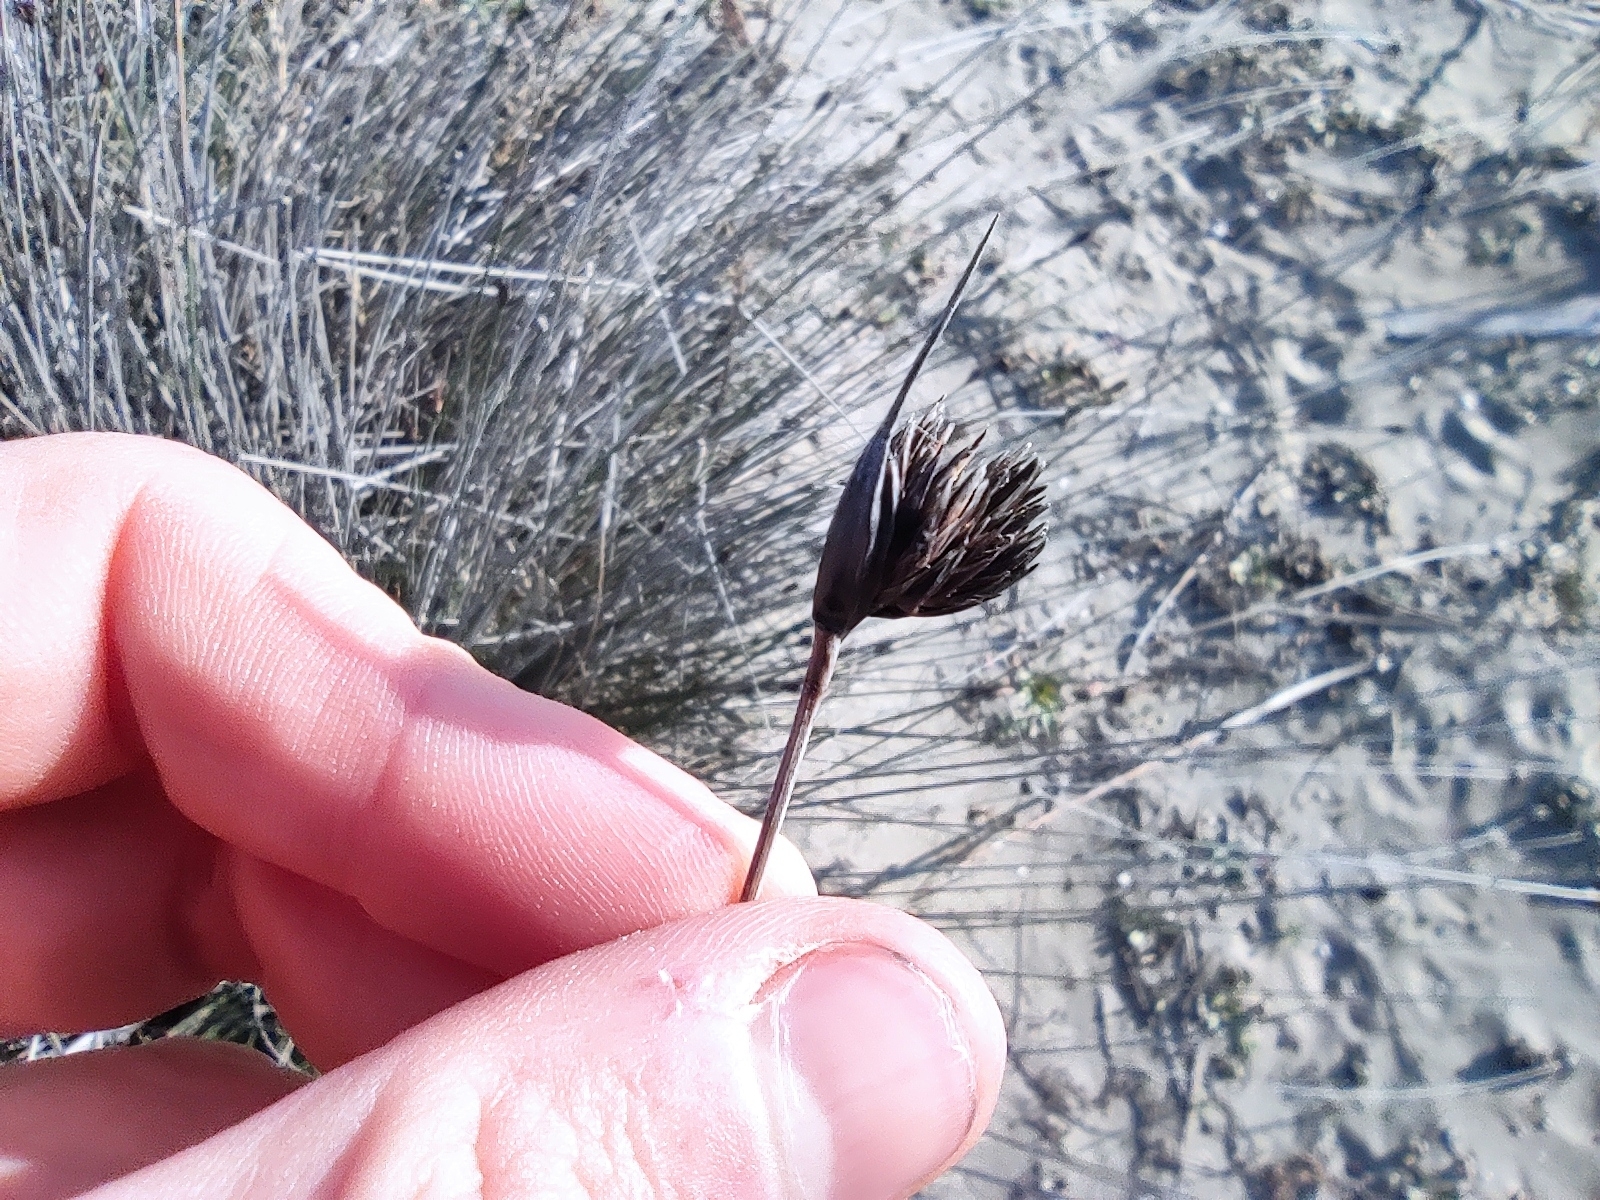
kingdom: Plantae
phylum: Tracheophyta
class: Liliopsida
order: Poales
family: Cyperaceae
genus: Schoenus
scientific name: Schoenus nigricans
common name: Black bog-rush
